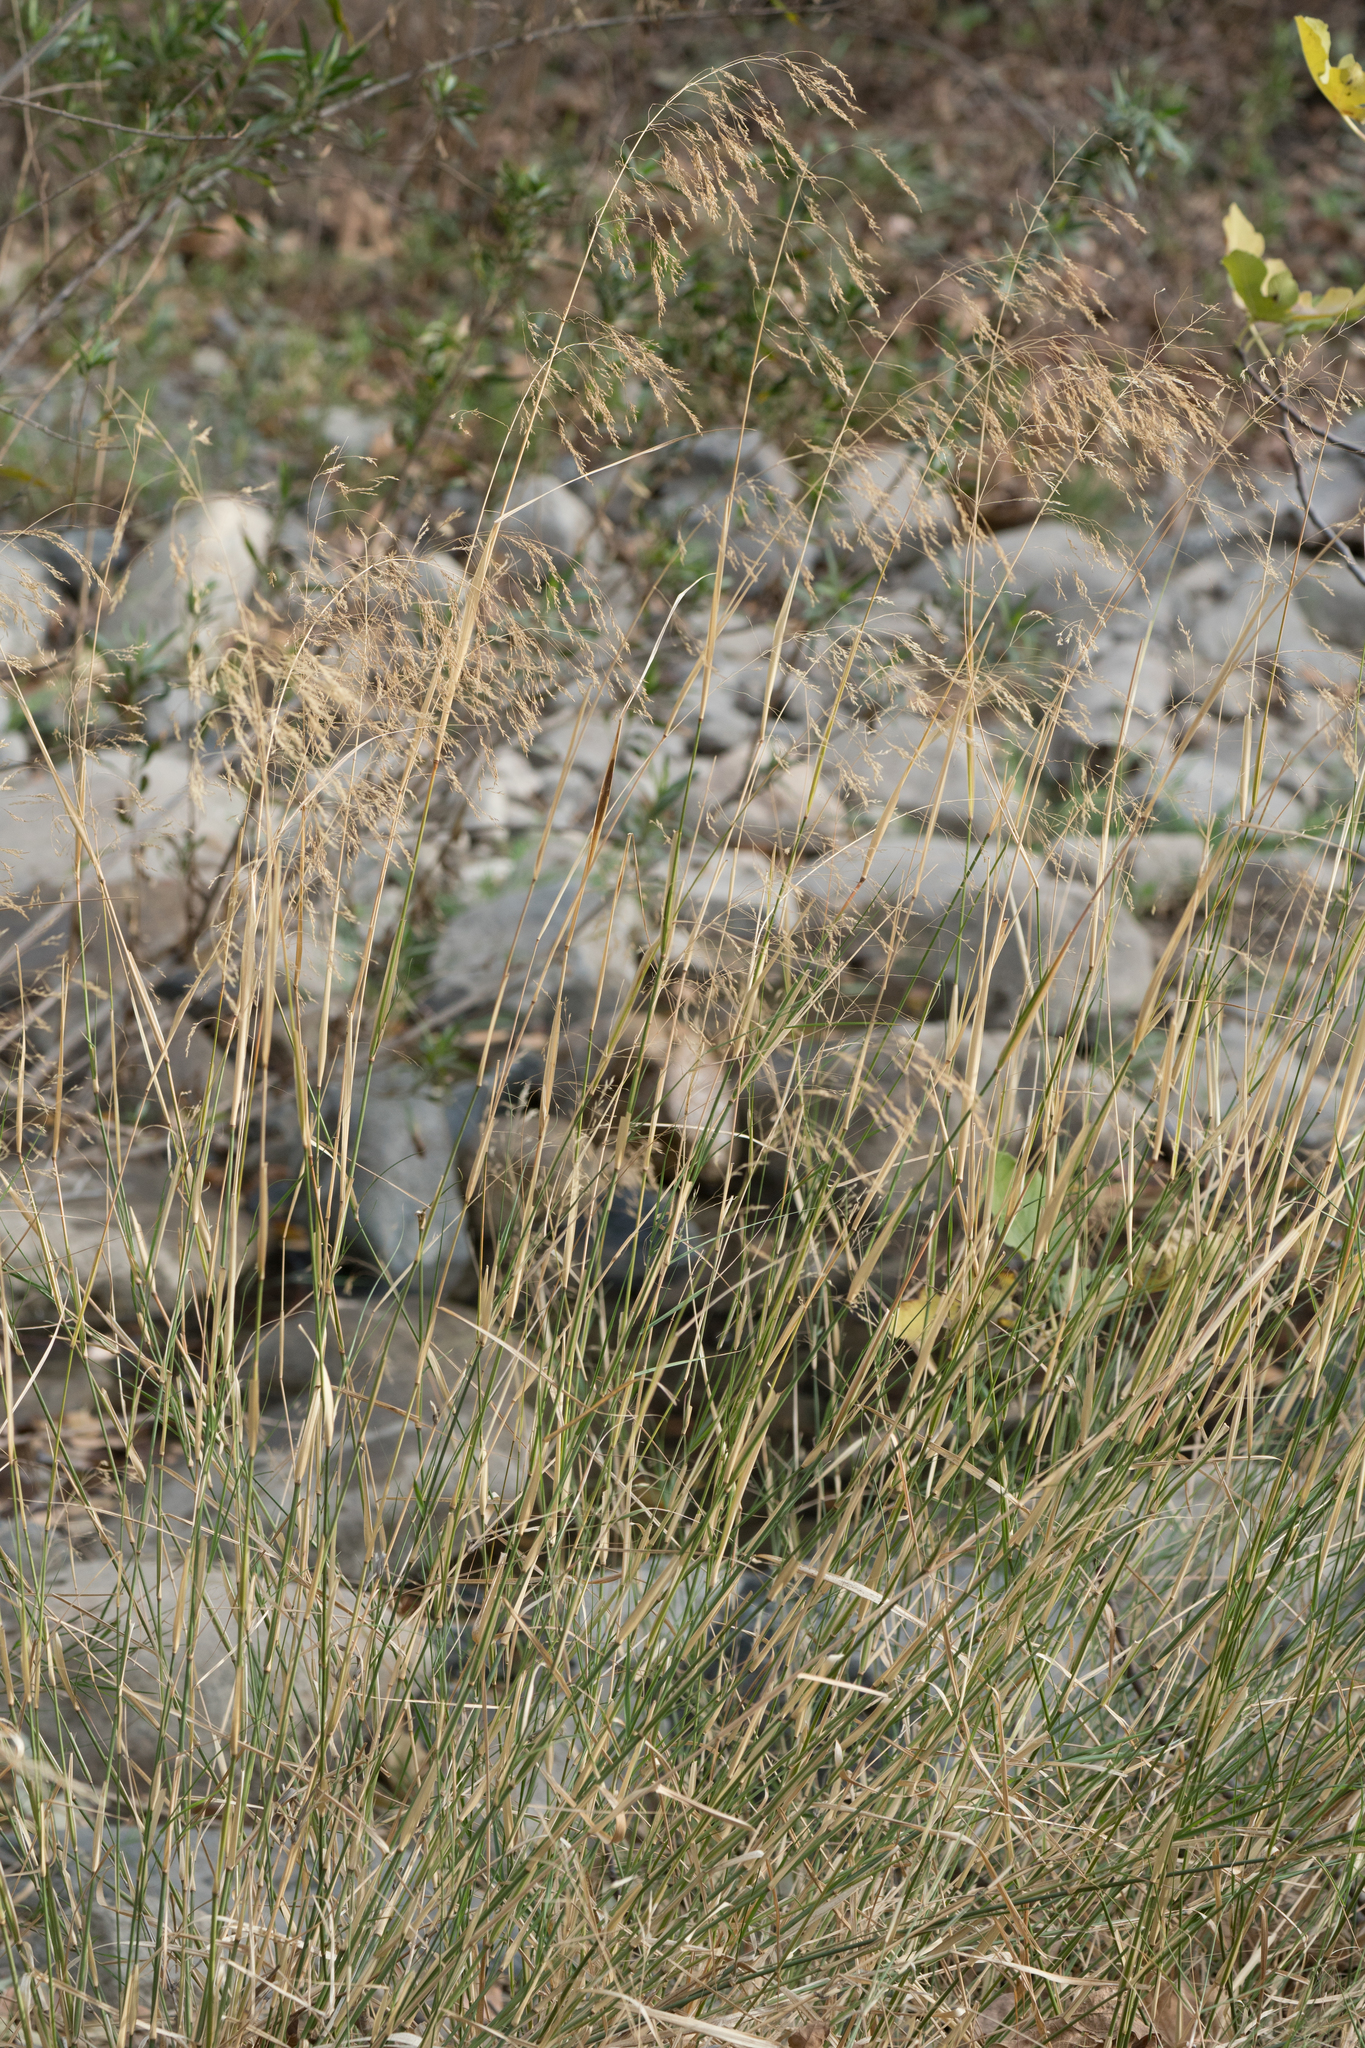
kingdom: Plantae
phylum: Tracheophyta
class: Liliopsida
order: Poales
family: Poaceae
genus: Oloptum
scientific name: Oloptum miliaceum
